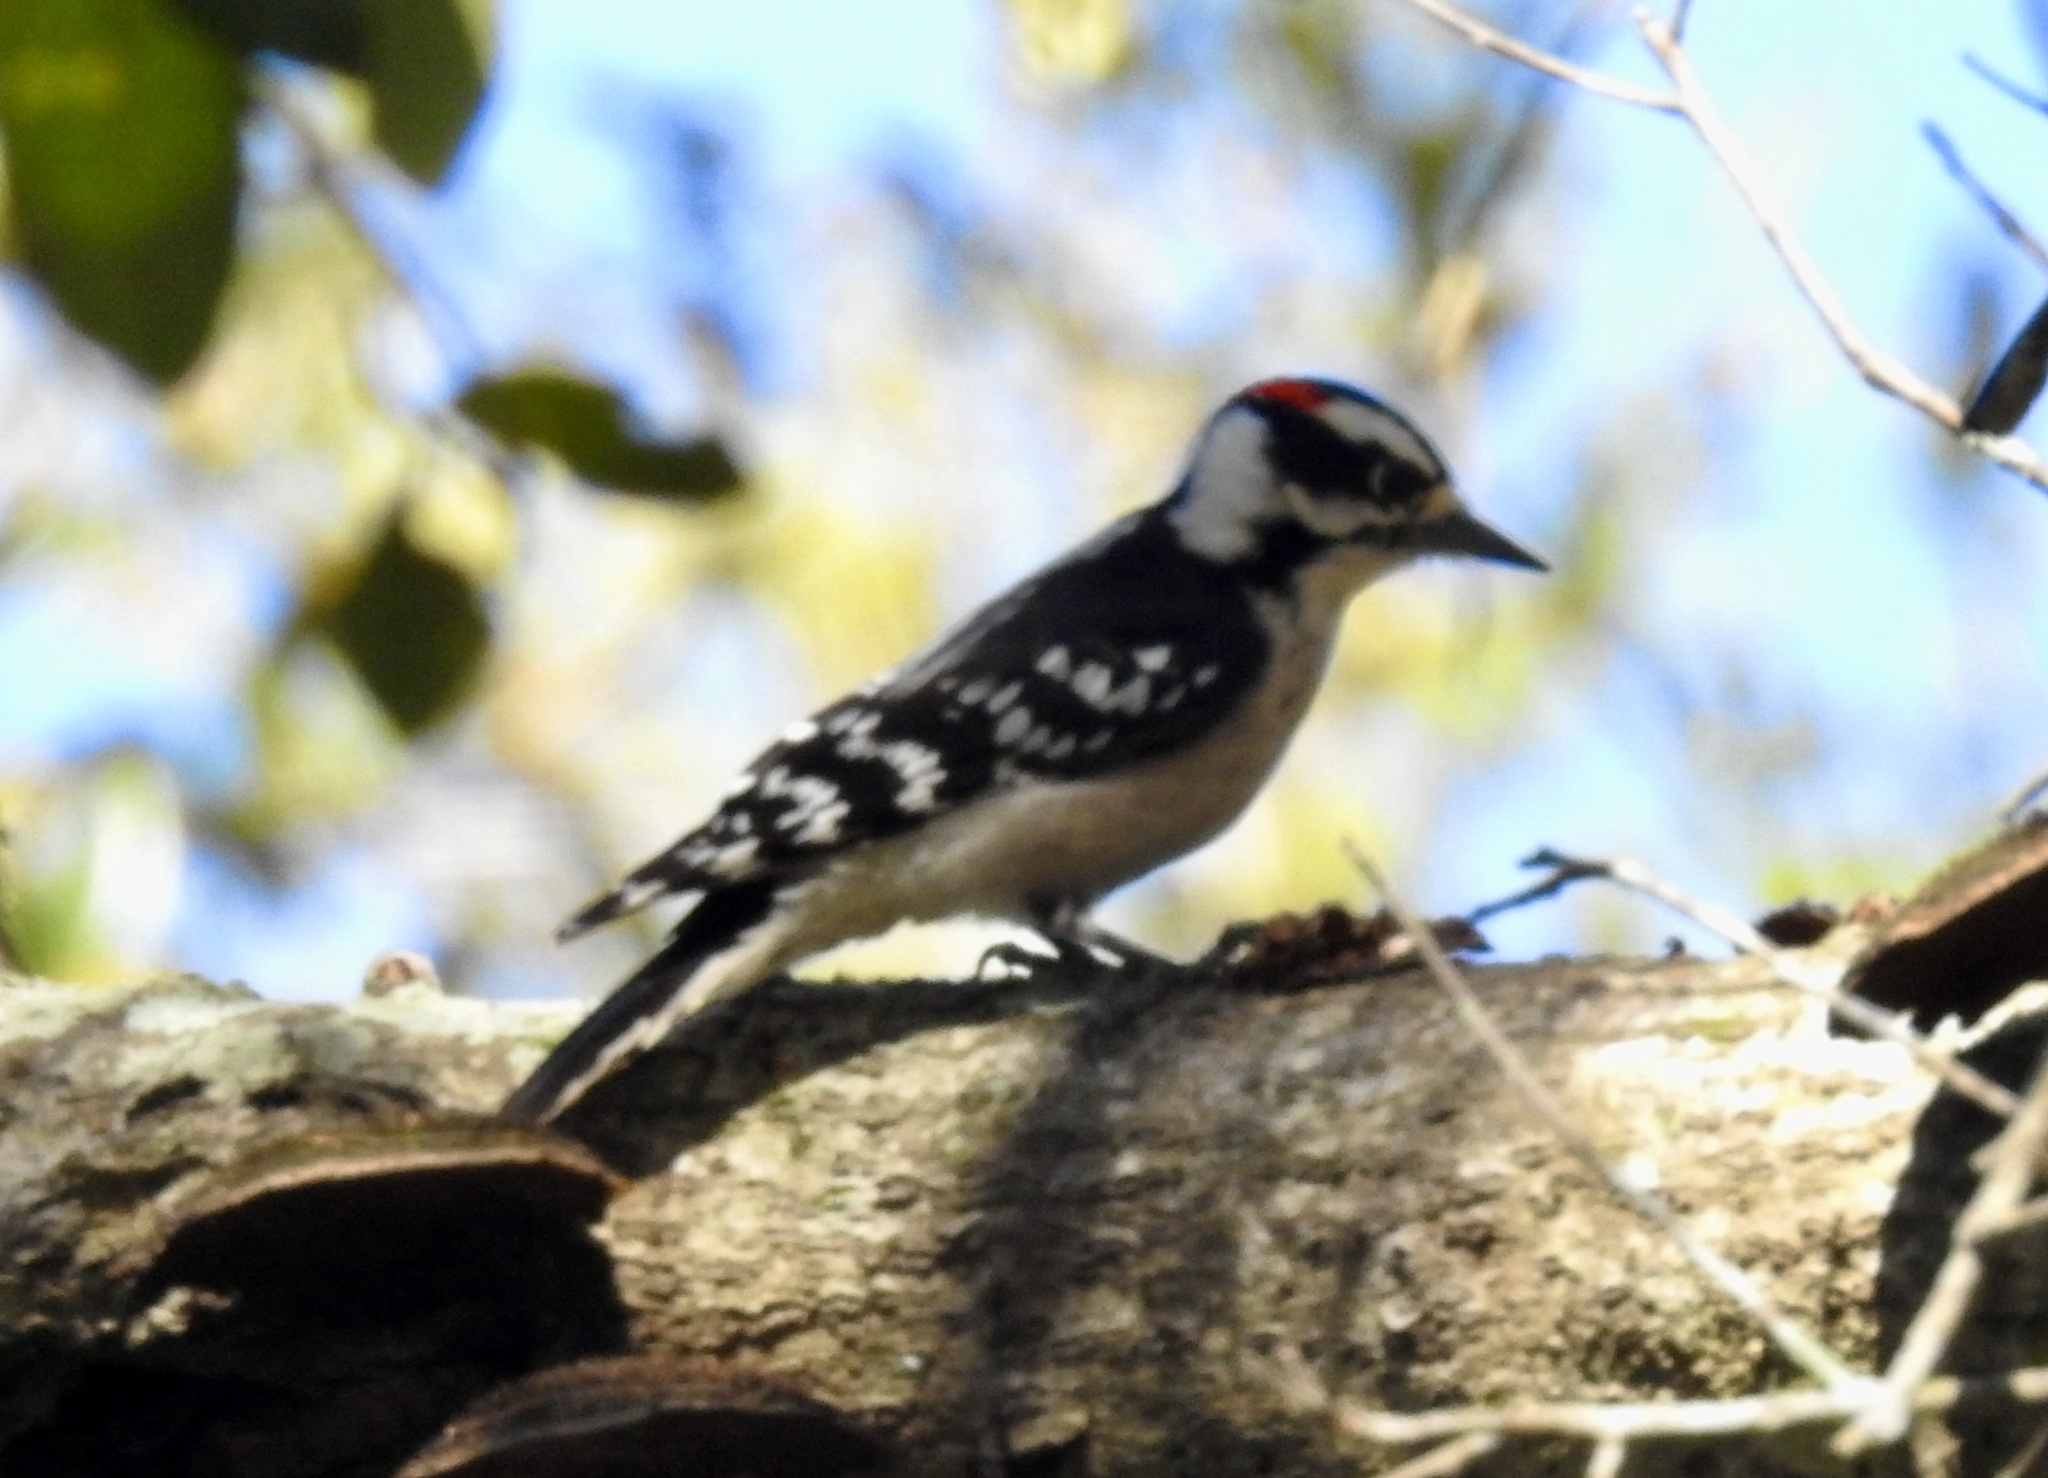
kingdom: Animalia
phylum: Chordata
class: Aves
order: Piciformes
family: Picidae
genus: Dryobates
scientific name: Dryobates pubescens
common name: Downy woodpecker
